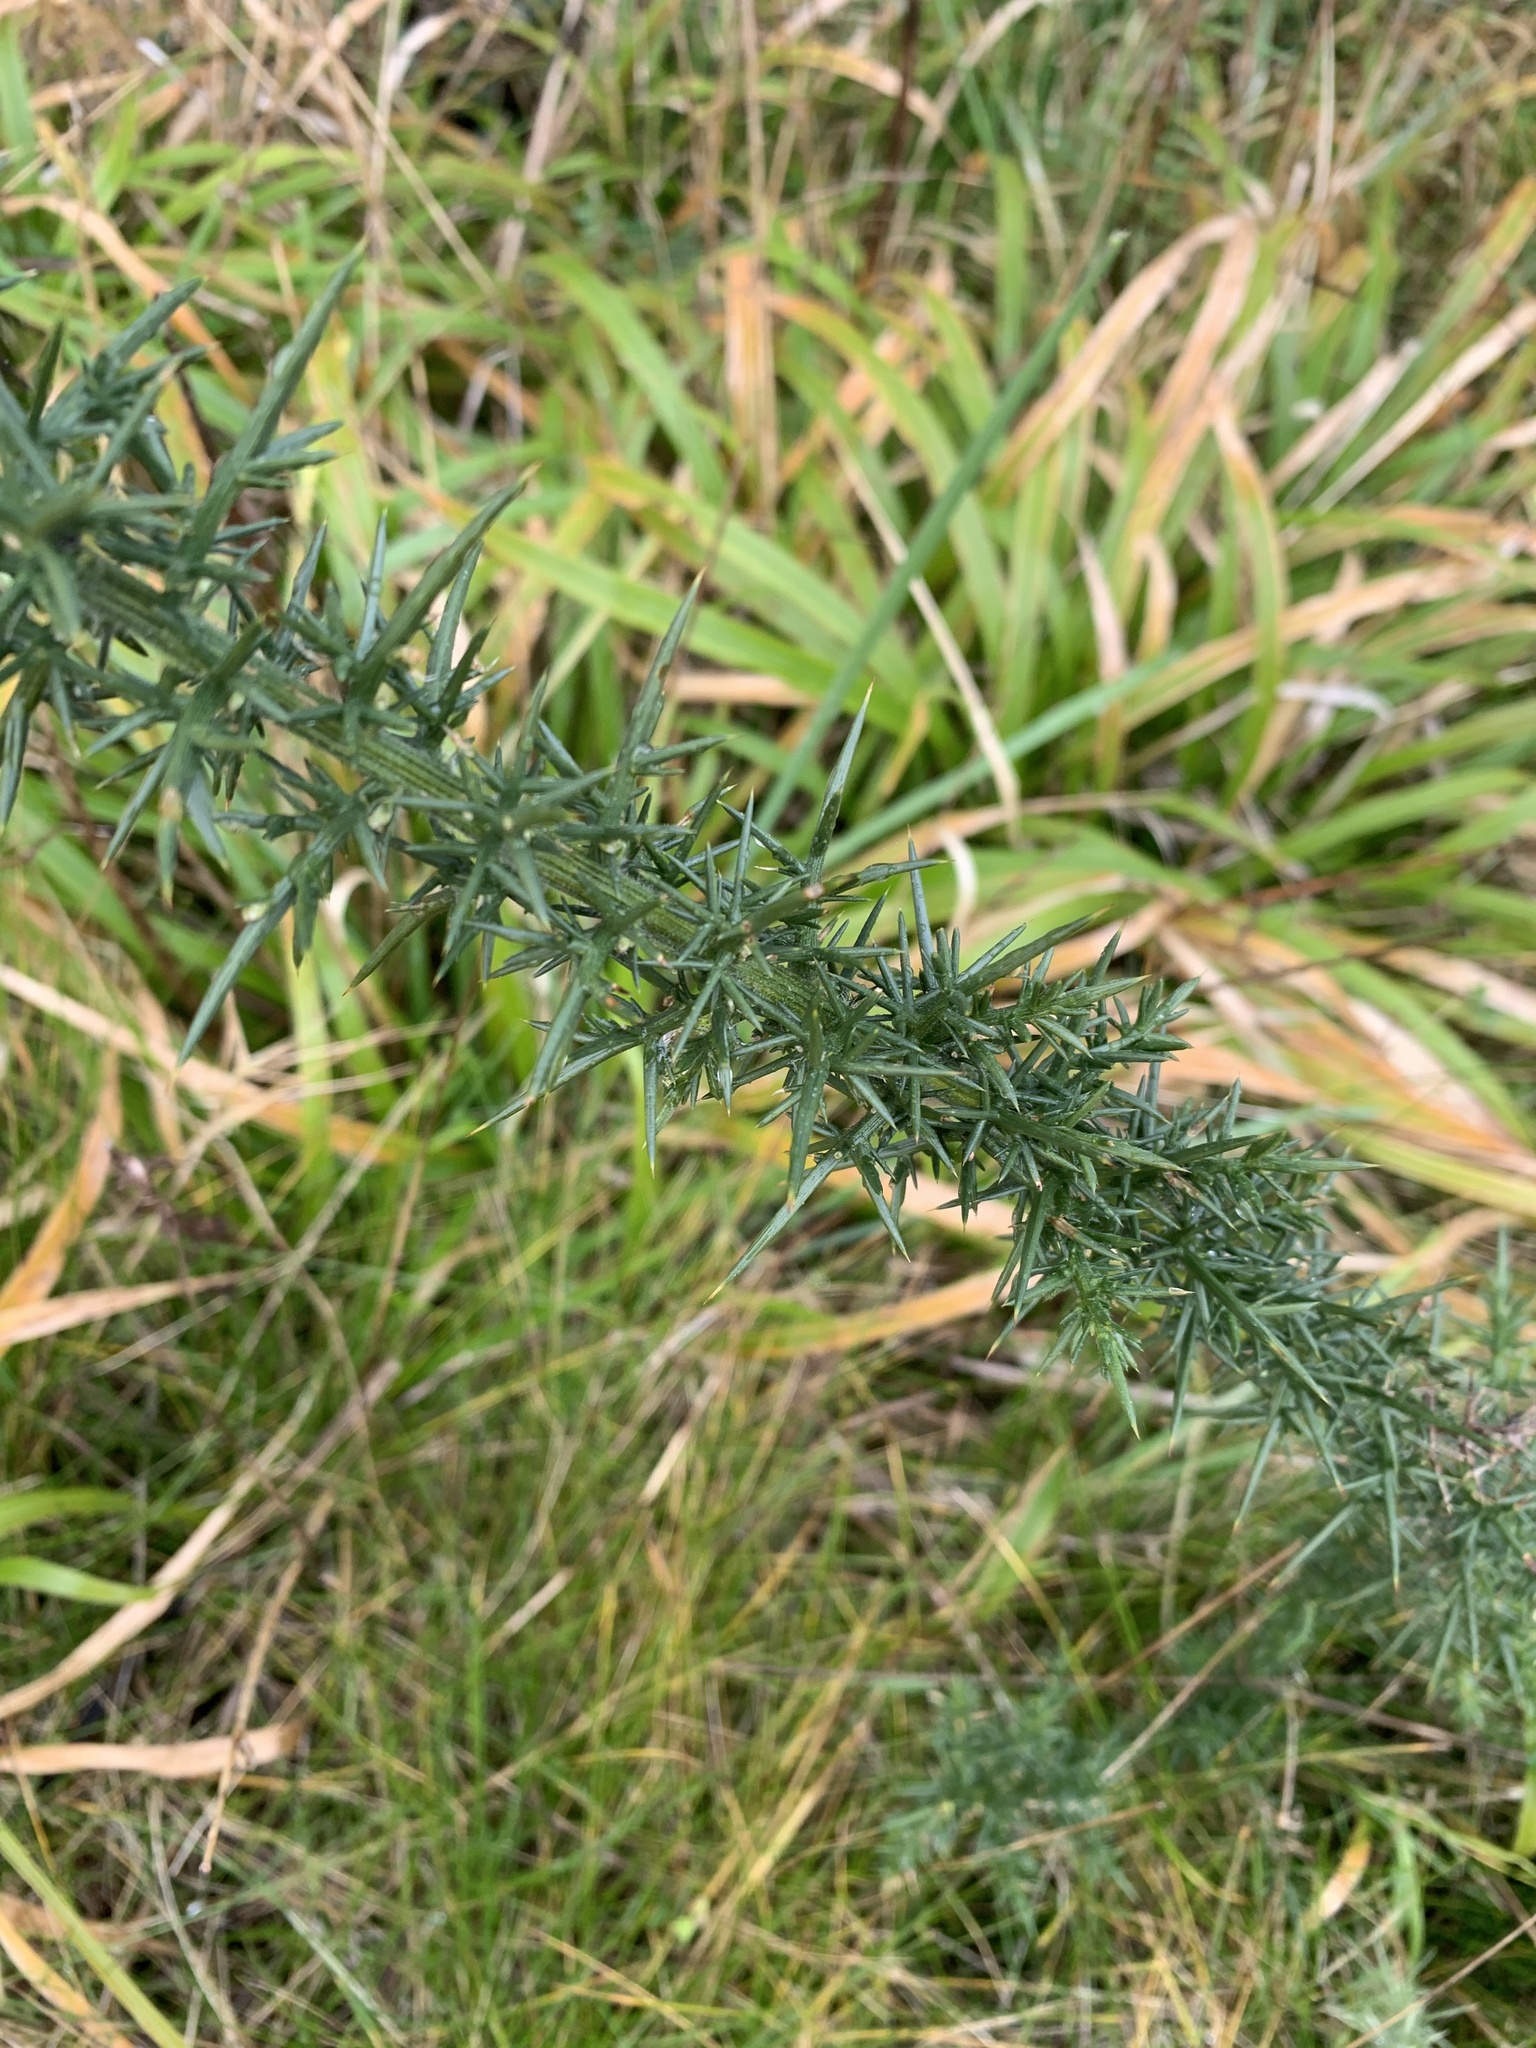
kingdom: Plantae
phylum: Tracheophyta
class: Magnoliopsida
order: Fabales
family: Fabaceae
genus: Ulex
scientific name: Ulex europaeus
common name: Common gorse
